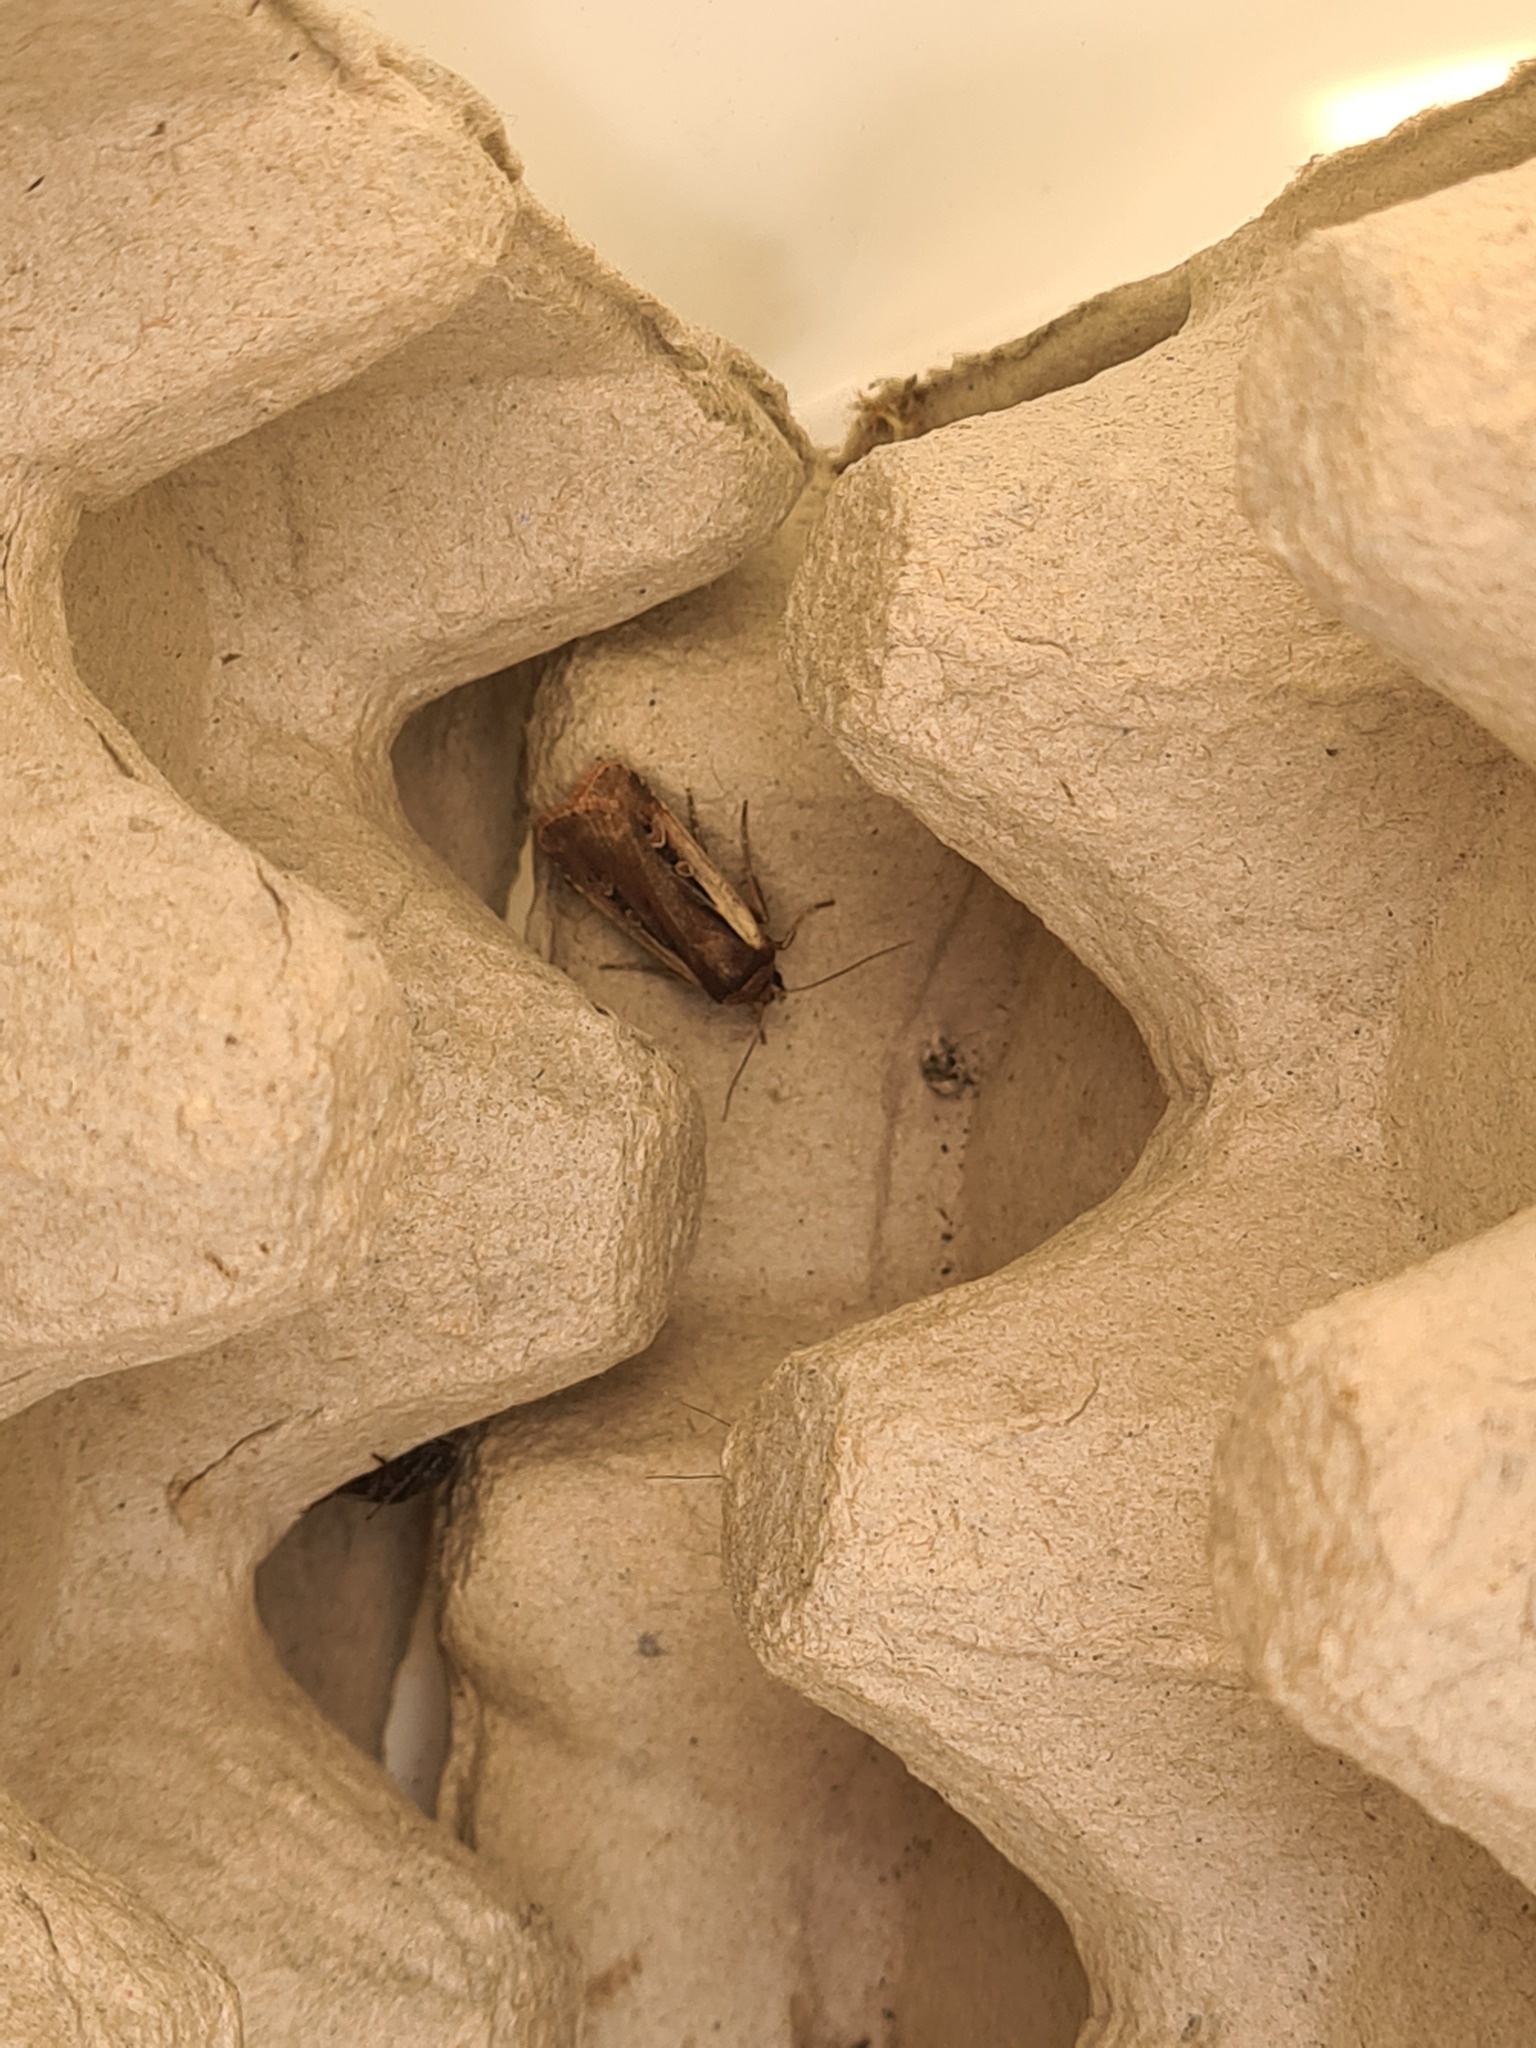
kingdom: Animalia
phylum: Arthropoda
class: Insecta
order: Lepidoptera
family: Noctuidae
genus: Ochropleura
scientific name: Ochropleura plecta
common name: Flame shoulder
